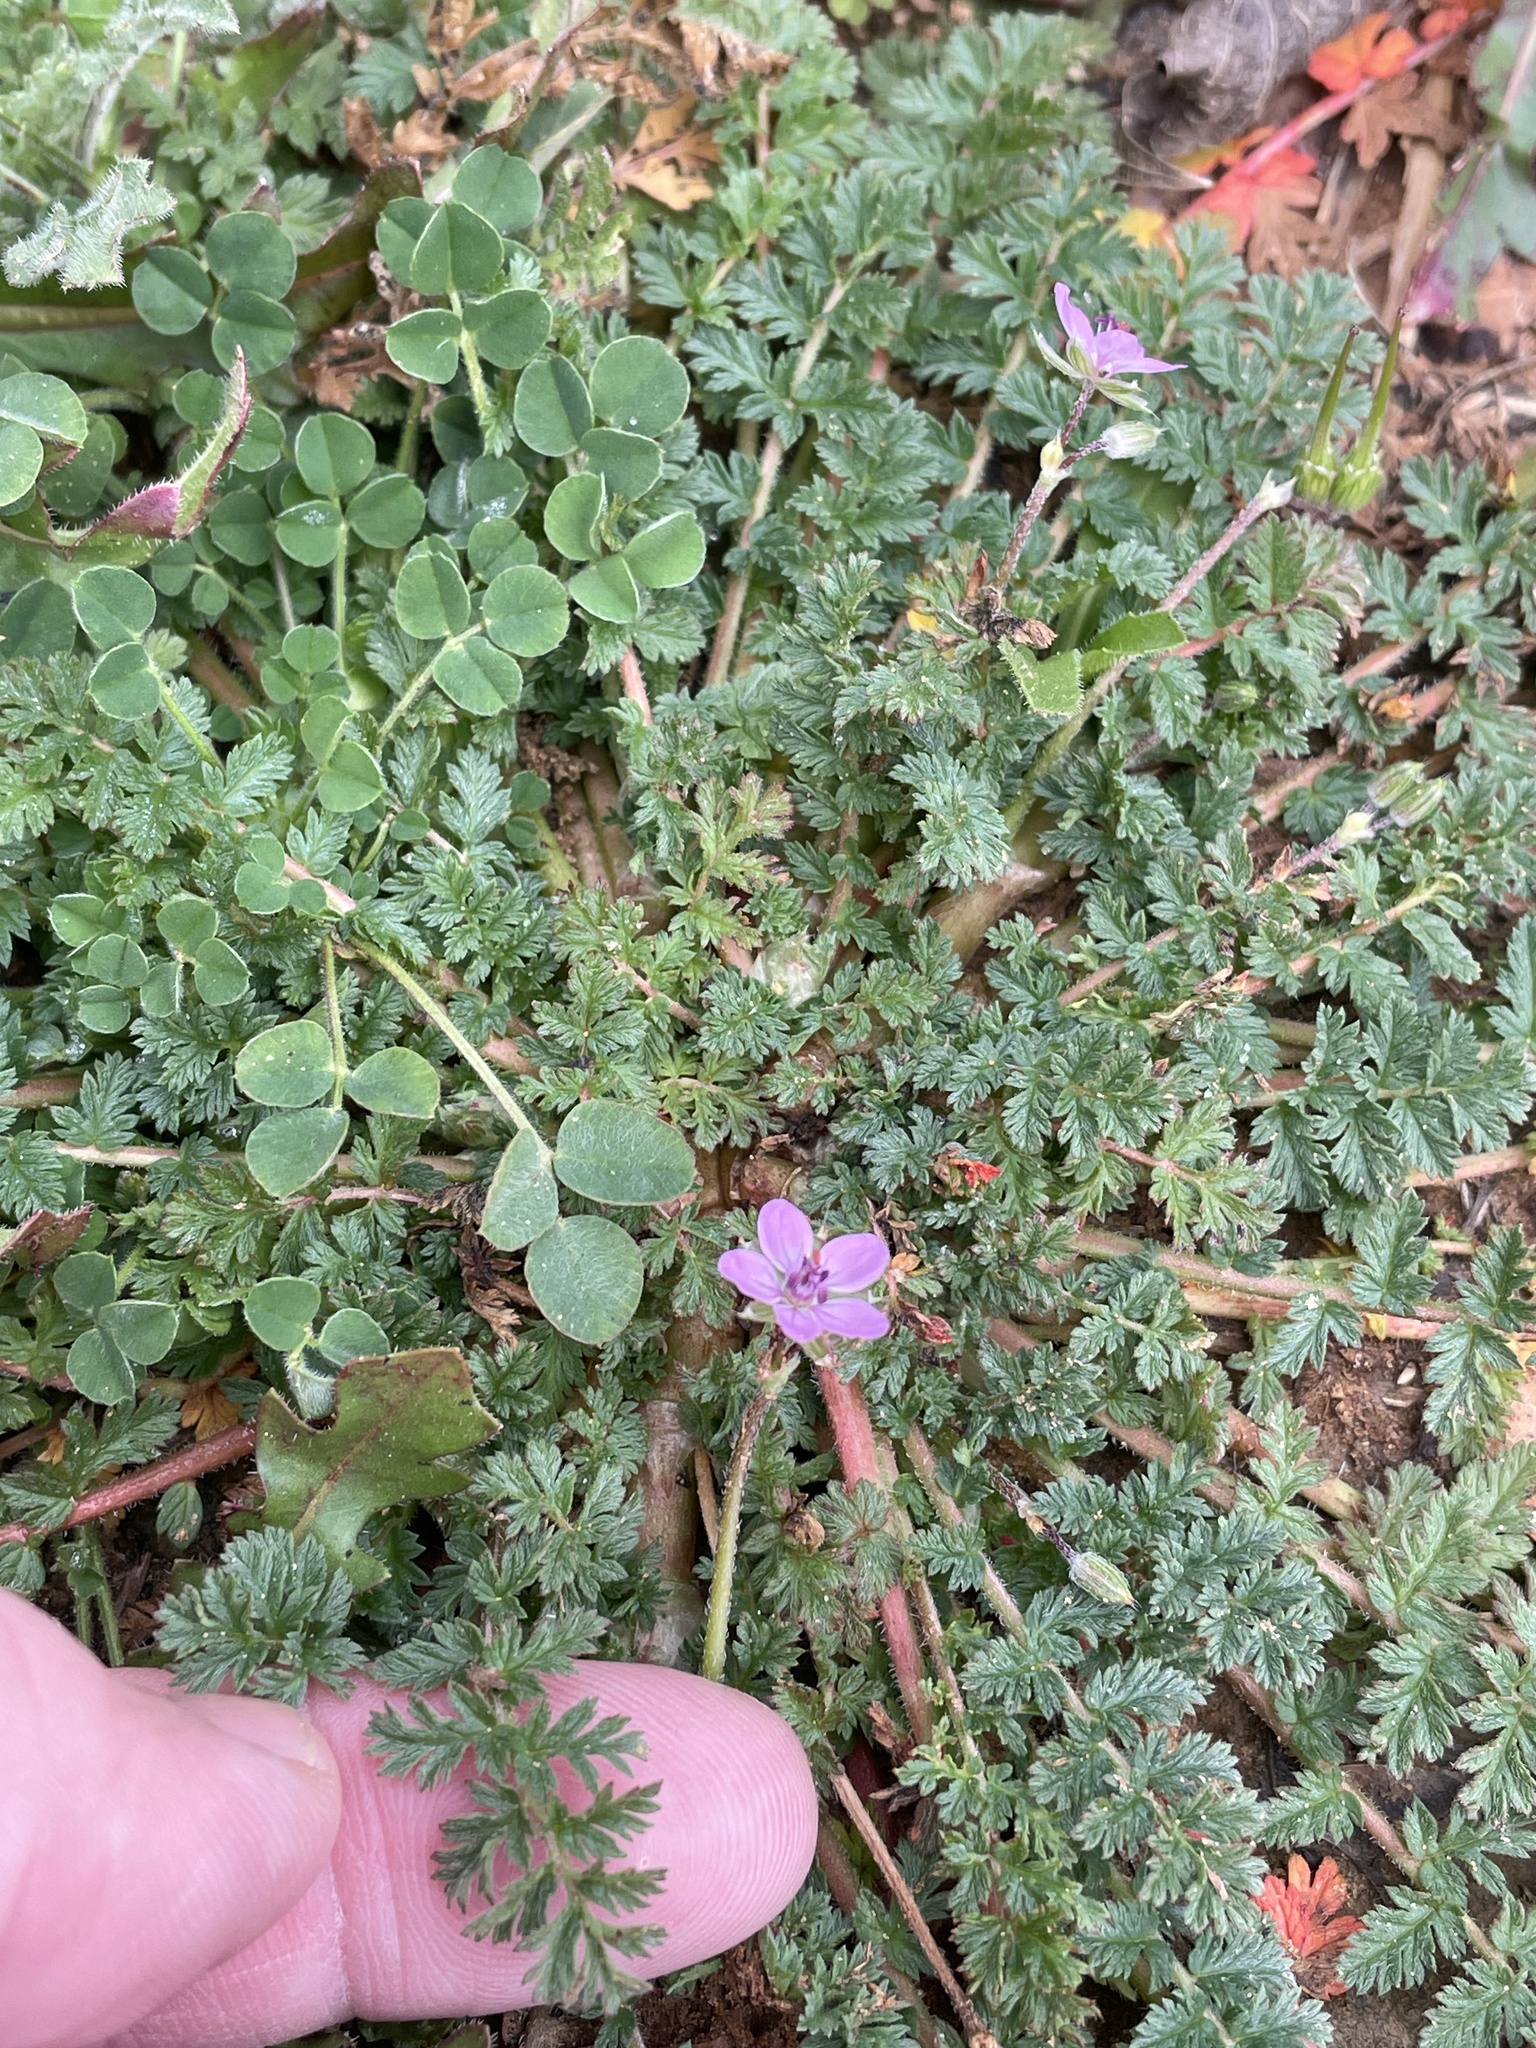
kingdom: Plantae
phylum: Tracheophyta
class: Magnoliopsida
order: Geraniales
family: Geraniaceae
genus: Erodium
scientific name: Erodium cicutarium
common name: Common stork's-bill
